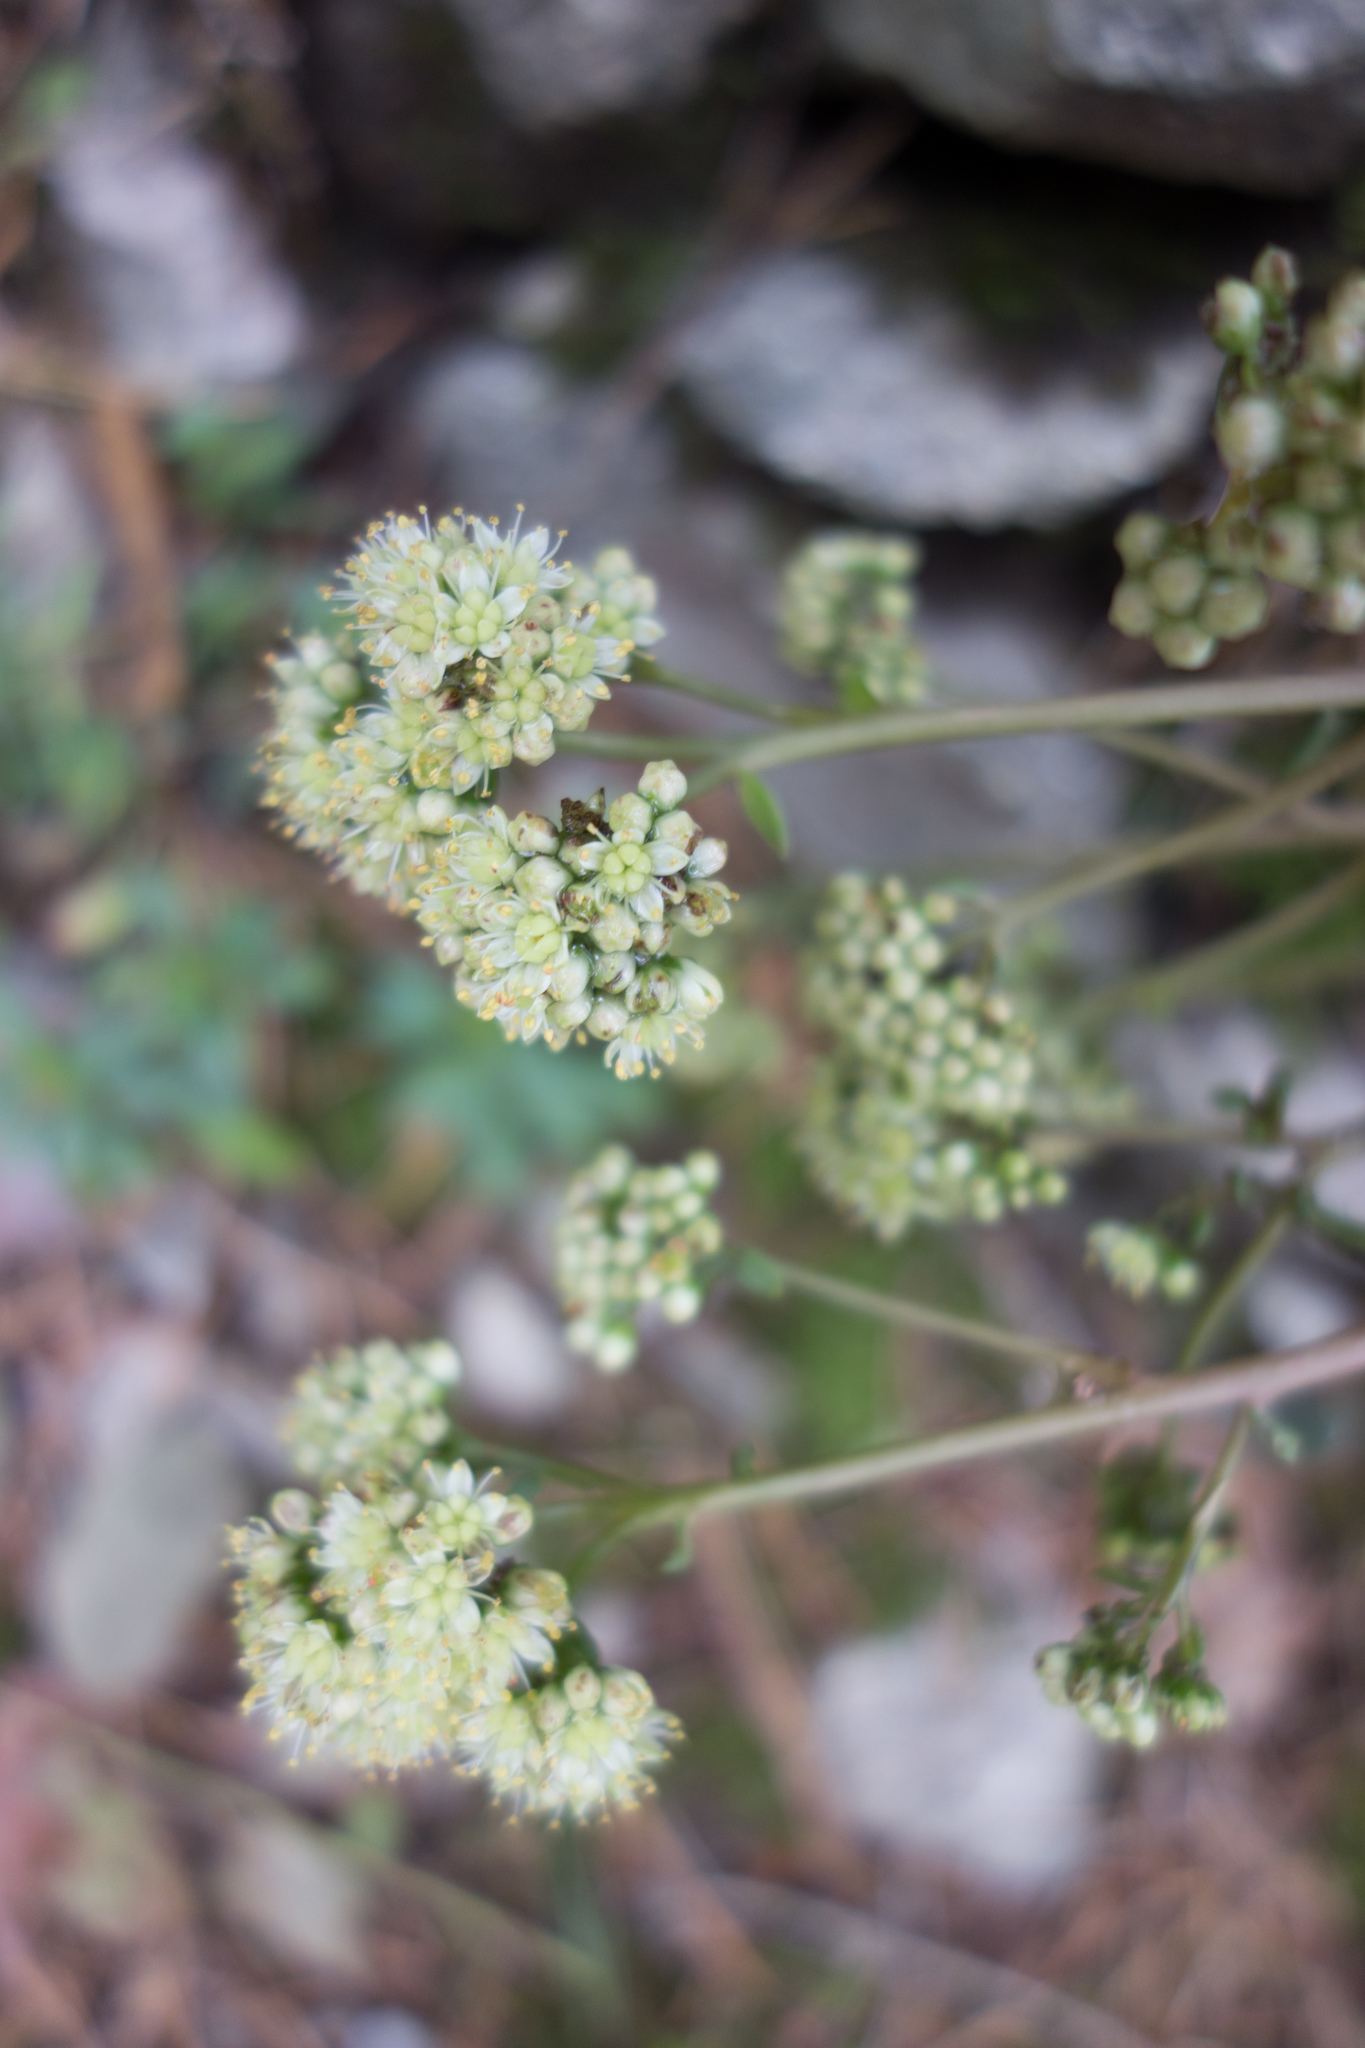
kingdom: Plantae
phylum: Tracheophyta
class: Magnoliopsida
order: Saxifragales
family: Crassulaceae
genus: Hylotelephium
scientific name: Hylotelephium maximum
